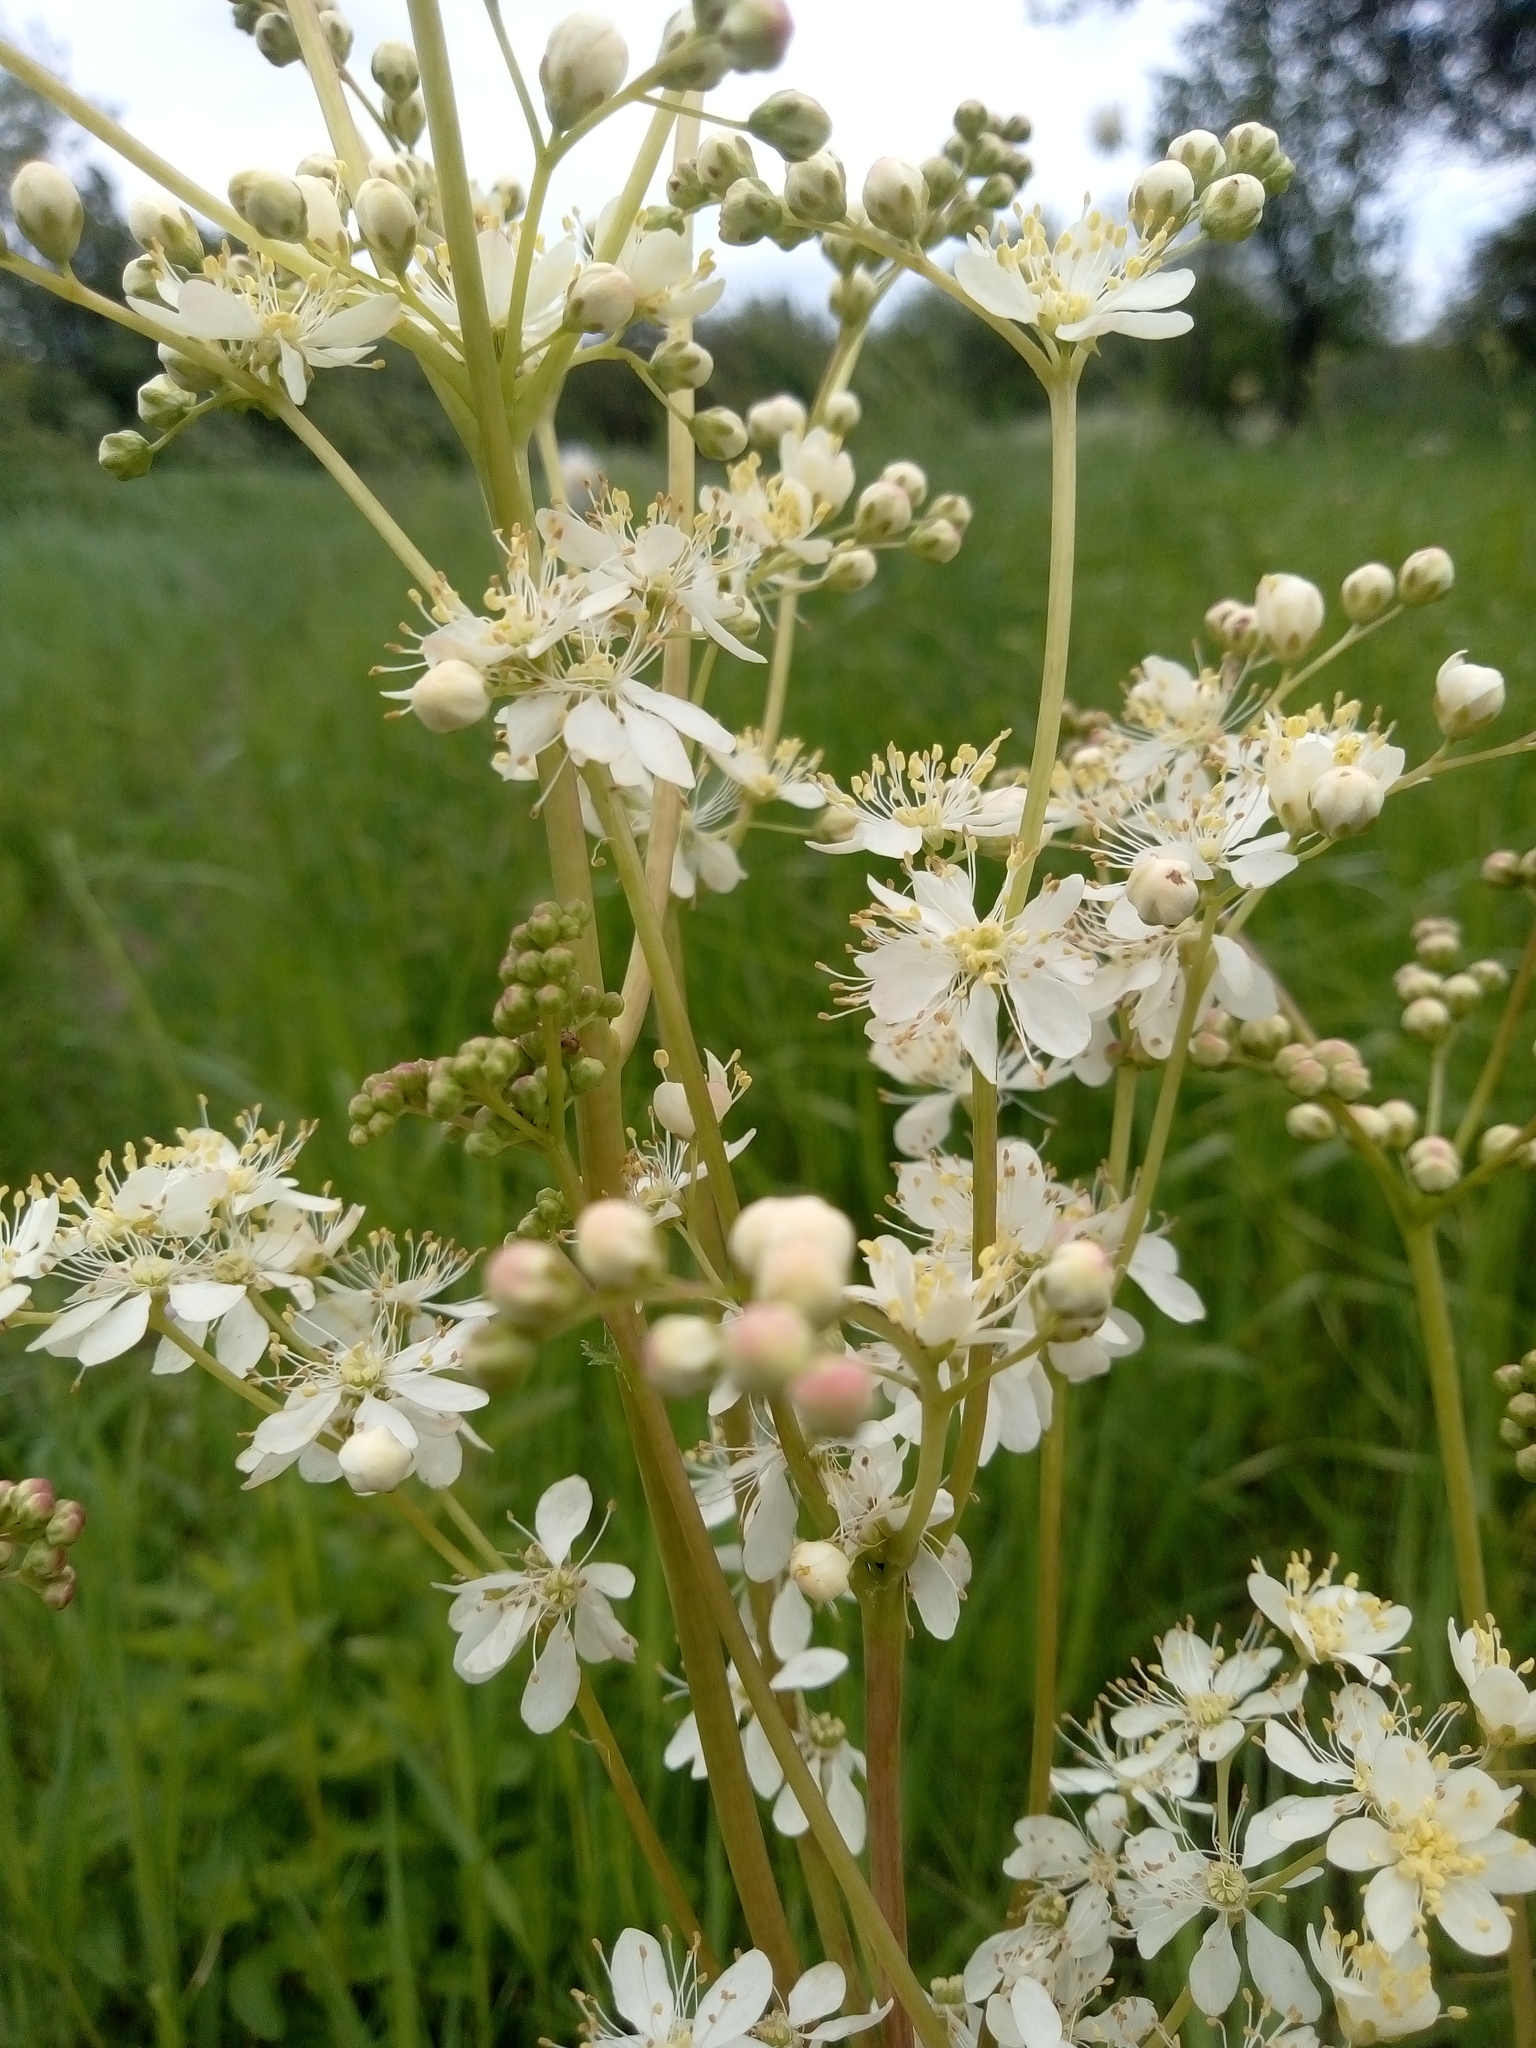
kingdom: Plantae
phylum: Tracheophyta
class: Magnoliopsida
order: Rosales
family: Rosaceae
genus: Filipendula
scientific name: Filipendula vulgaris
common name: Dropwort
